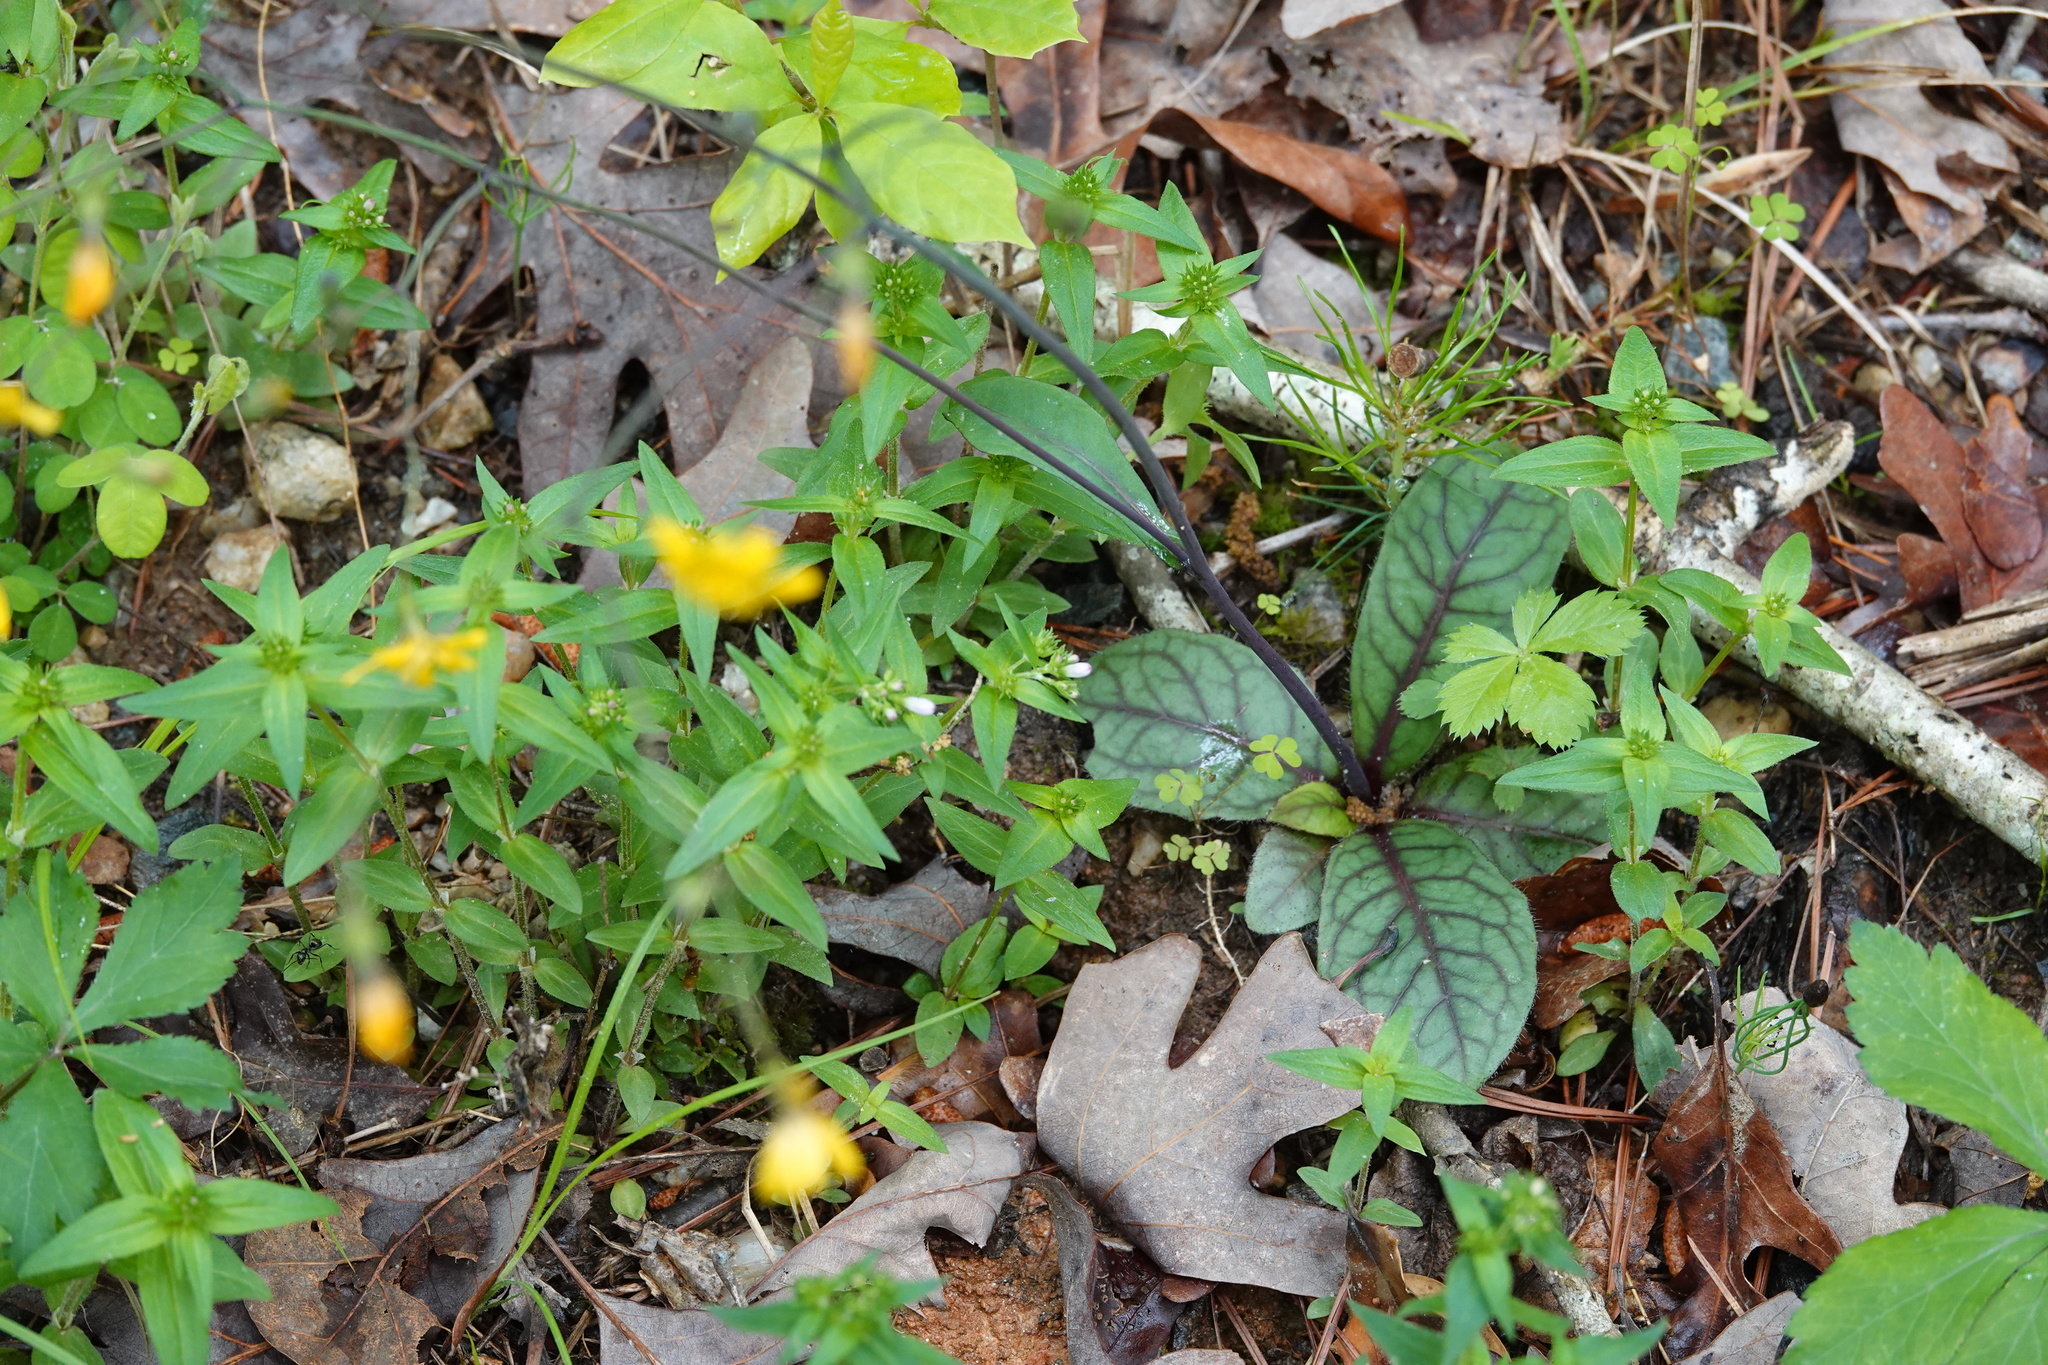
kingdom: Plantae
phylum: Tracheophyta
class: Magnoliopsida
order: Asterales
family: Asteraceae
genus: Hieracium
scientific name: Hieracium venosum
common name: Rattlesnake hawkweed
